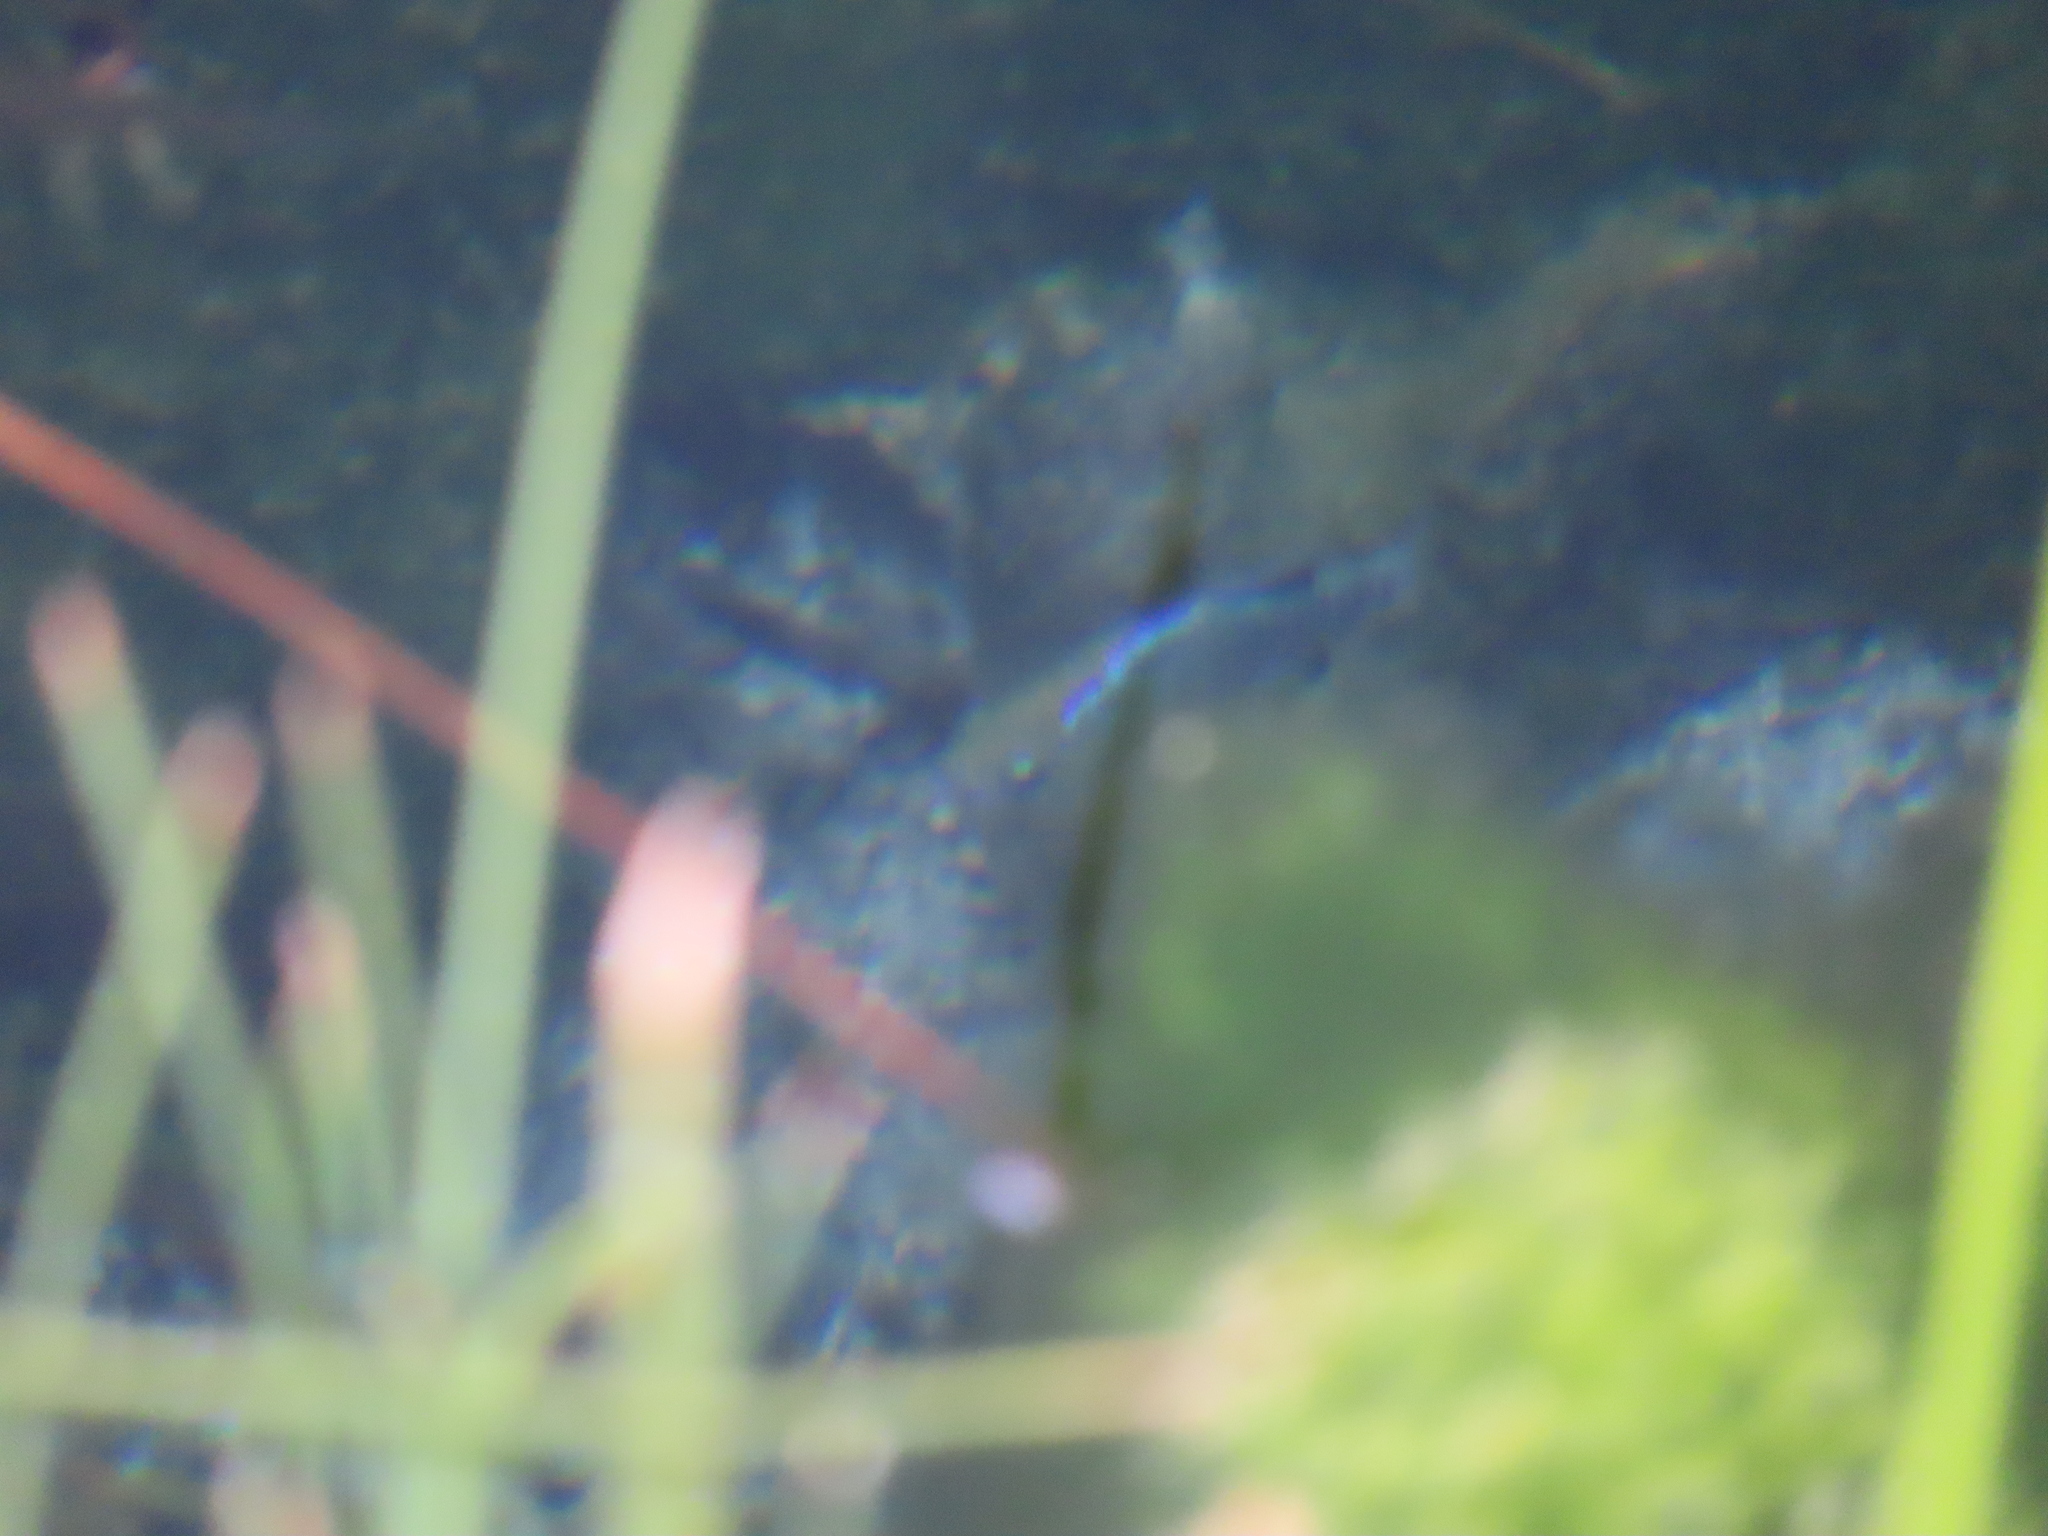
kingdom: Animalia
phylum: Chordata
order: Cyprinodontiformes
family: Cyprinodontidae
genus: Cyprinodon
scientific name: Cyprinodon nevadensis
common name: Amargosa pupfish
